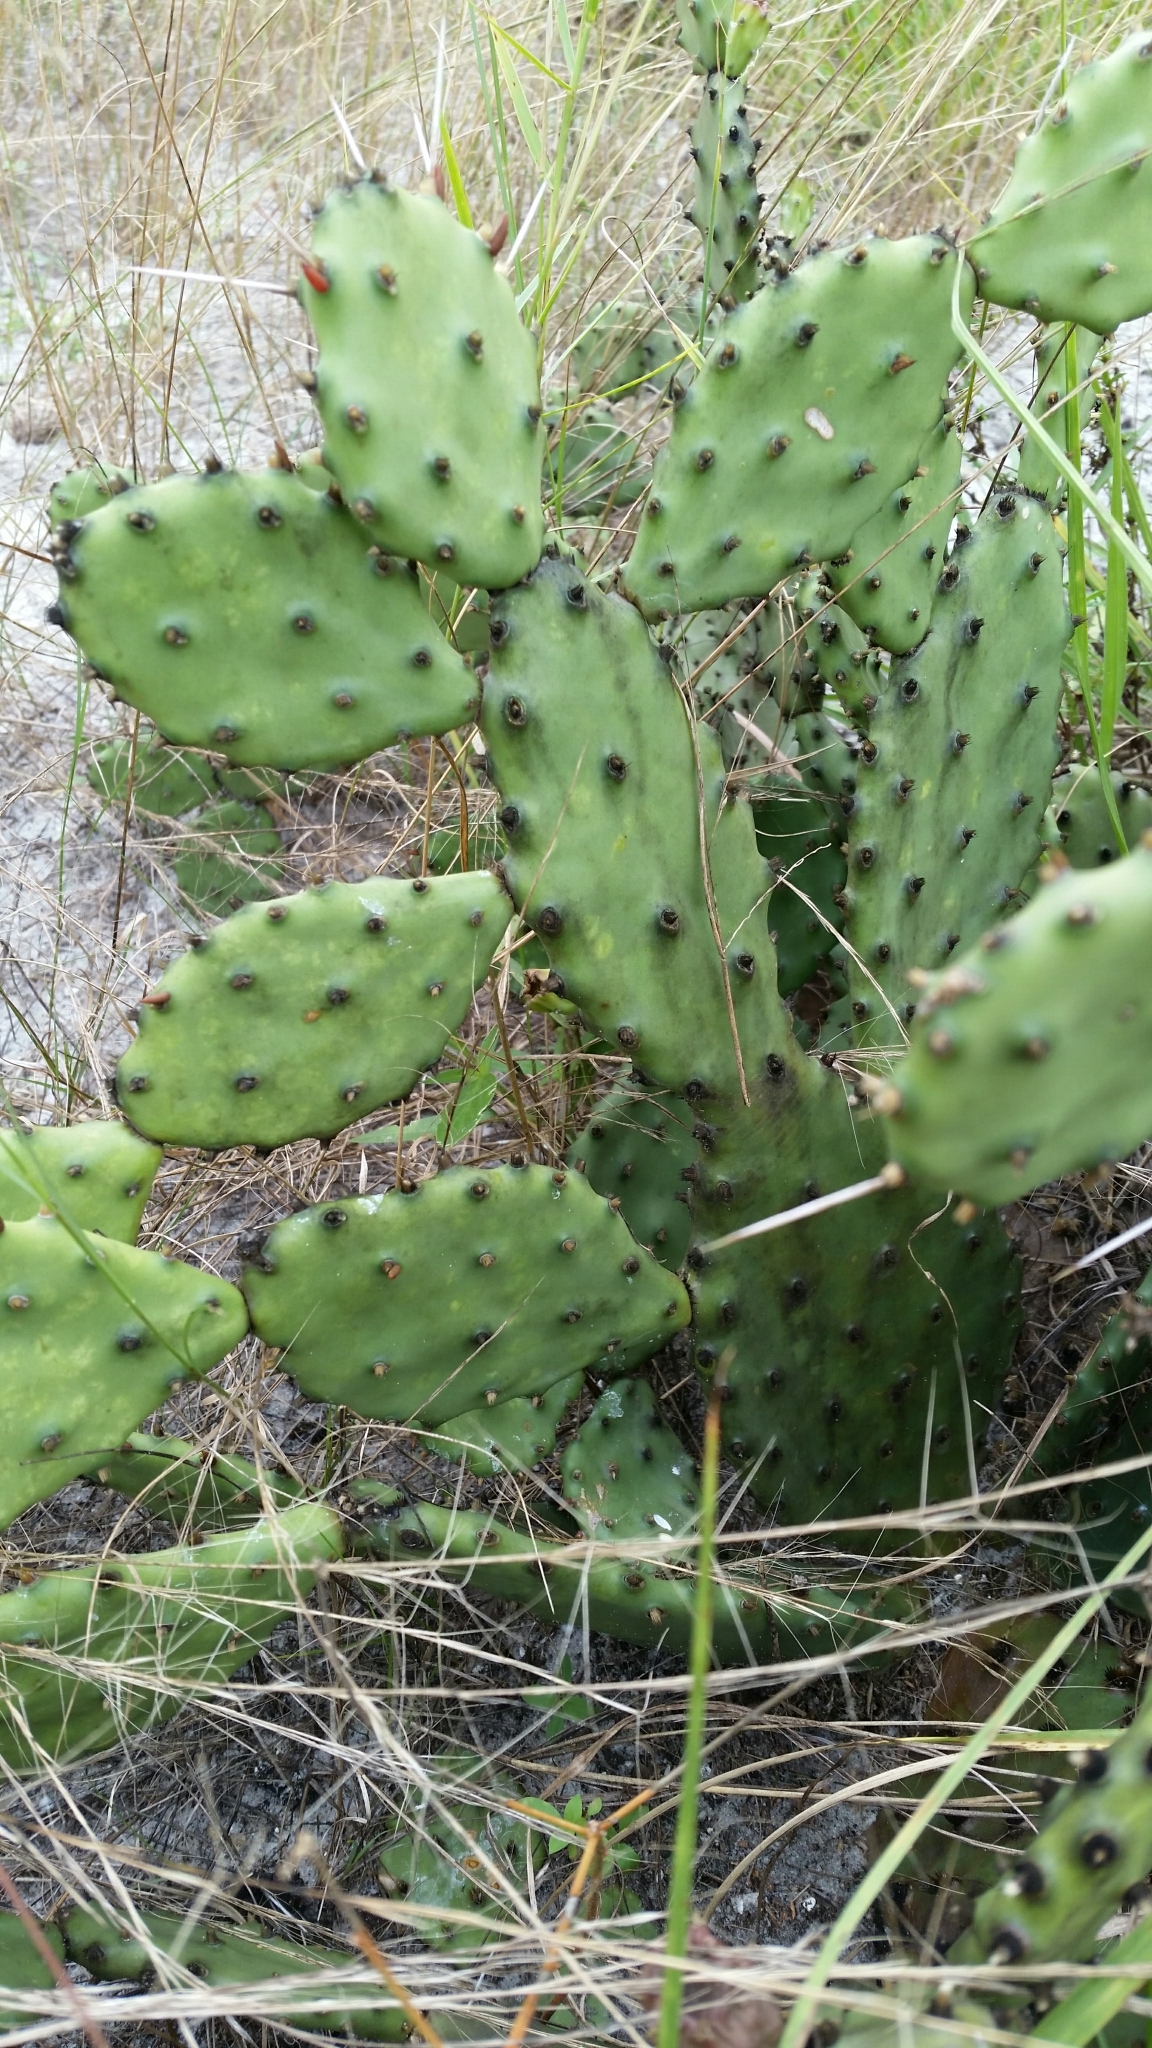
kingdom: Plantae
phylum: Tracheophyta
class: Magnoliopsida
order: Caryophyllales
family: Cactaceae
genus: Opuntia
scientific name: Opuntia mesacantha
